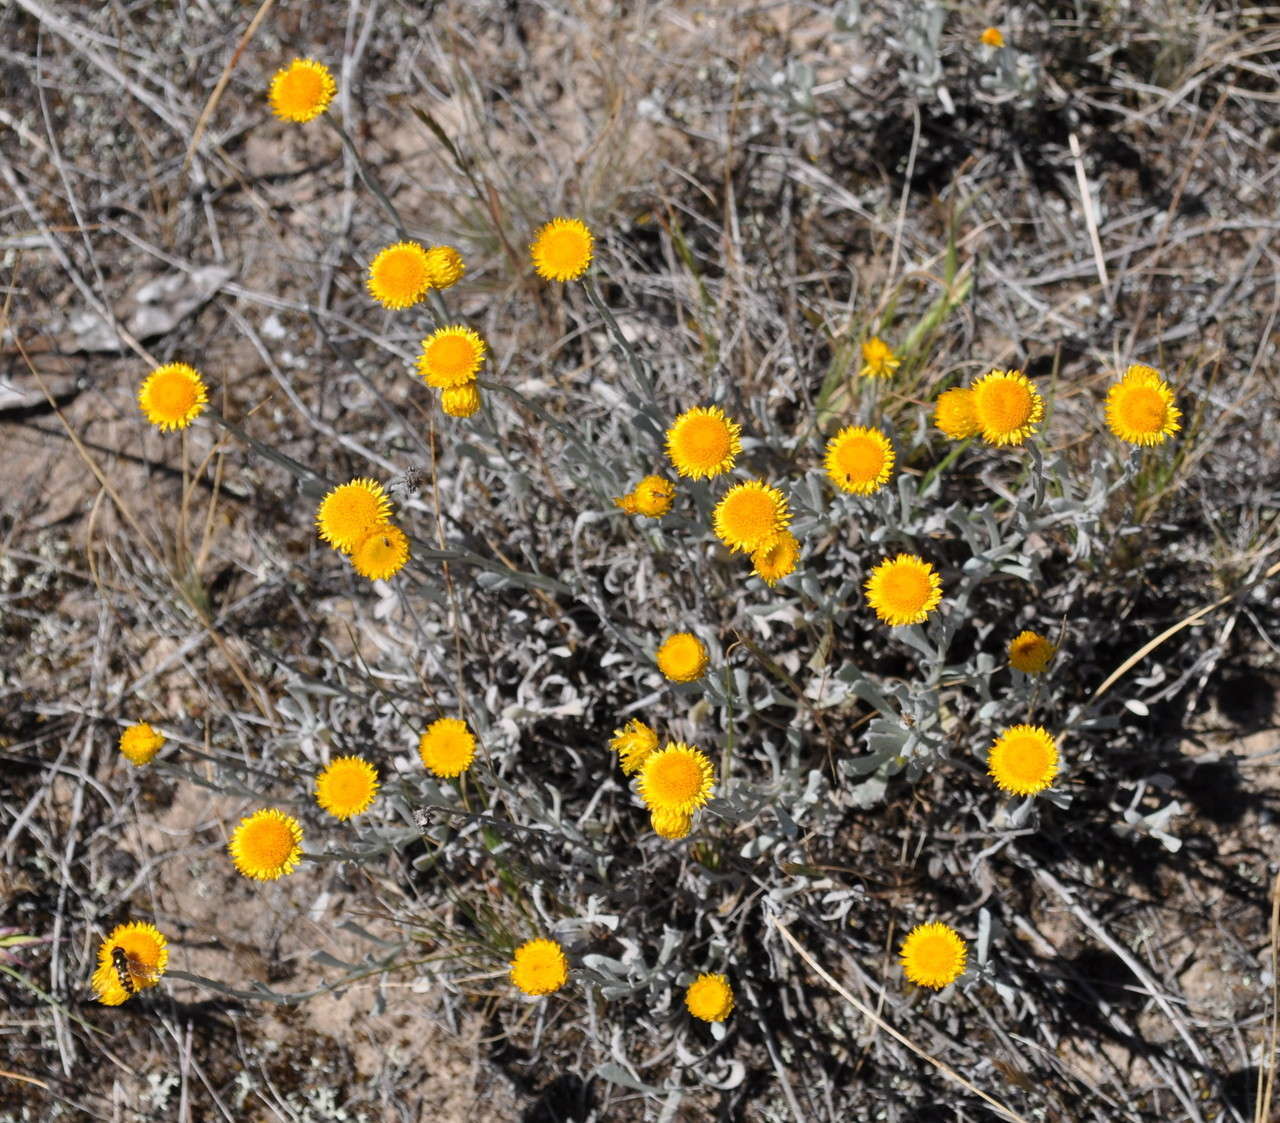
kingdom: Plantae
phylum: Tracheophyta
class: Magnoliopsida
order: Asterales
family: Asteraceae
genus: Chrysocephalum
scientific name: Chrysocephalum apiculatum
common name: Common everlasting
